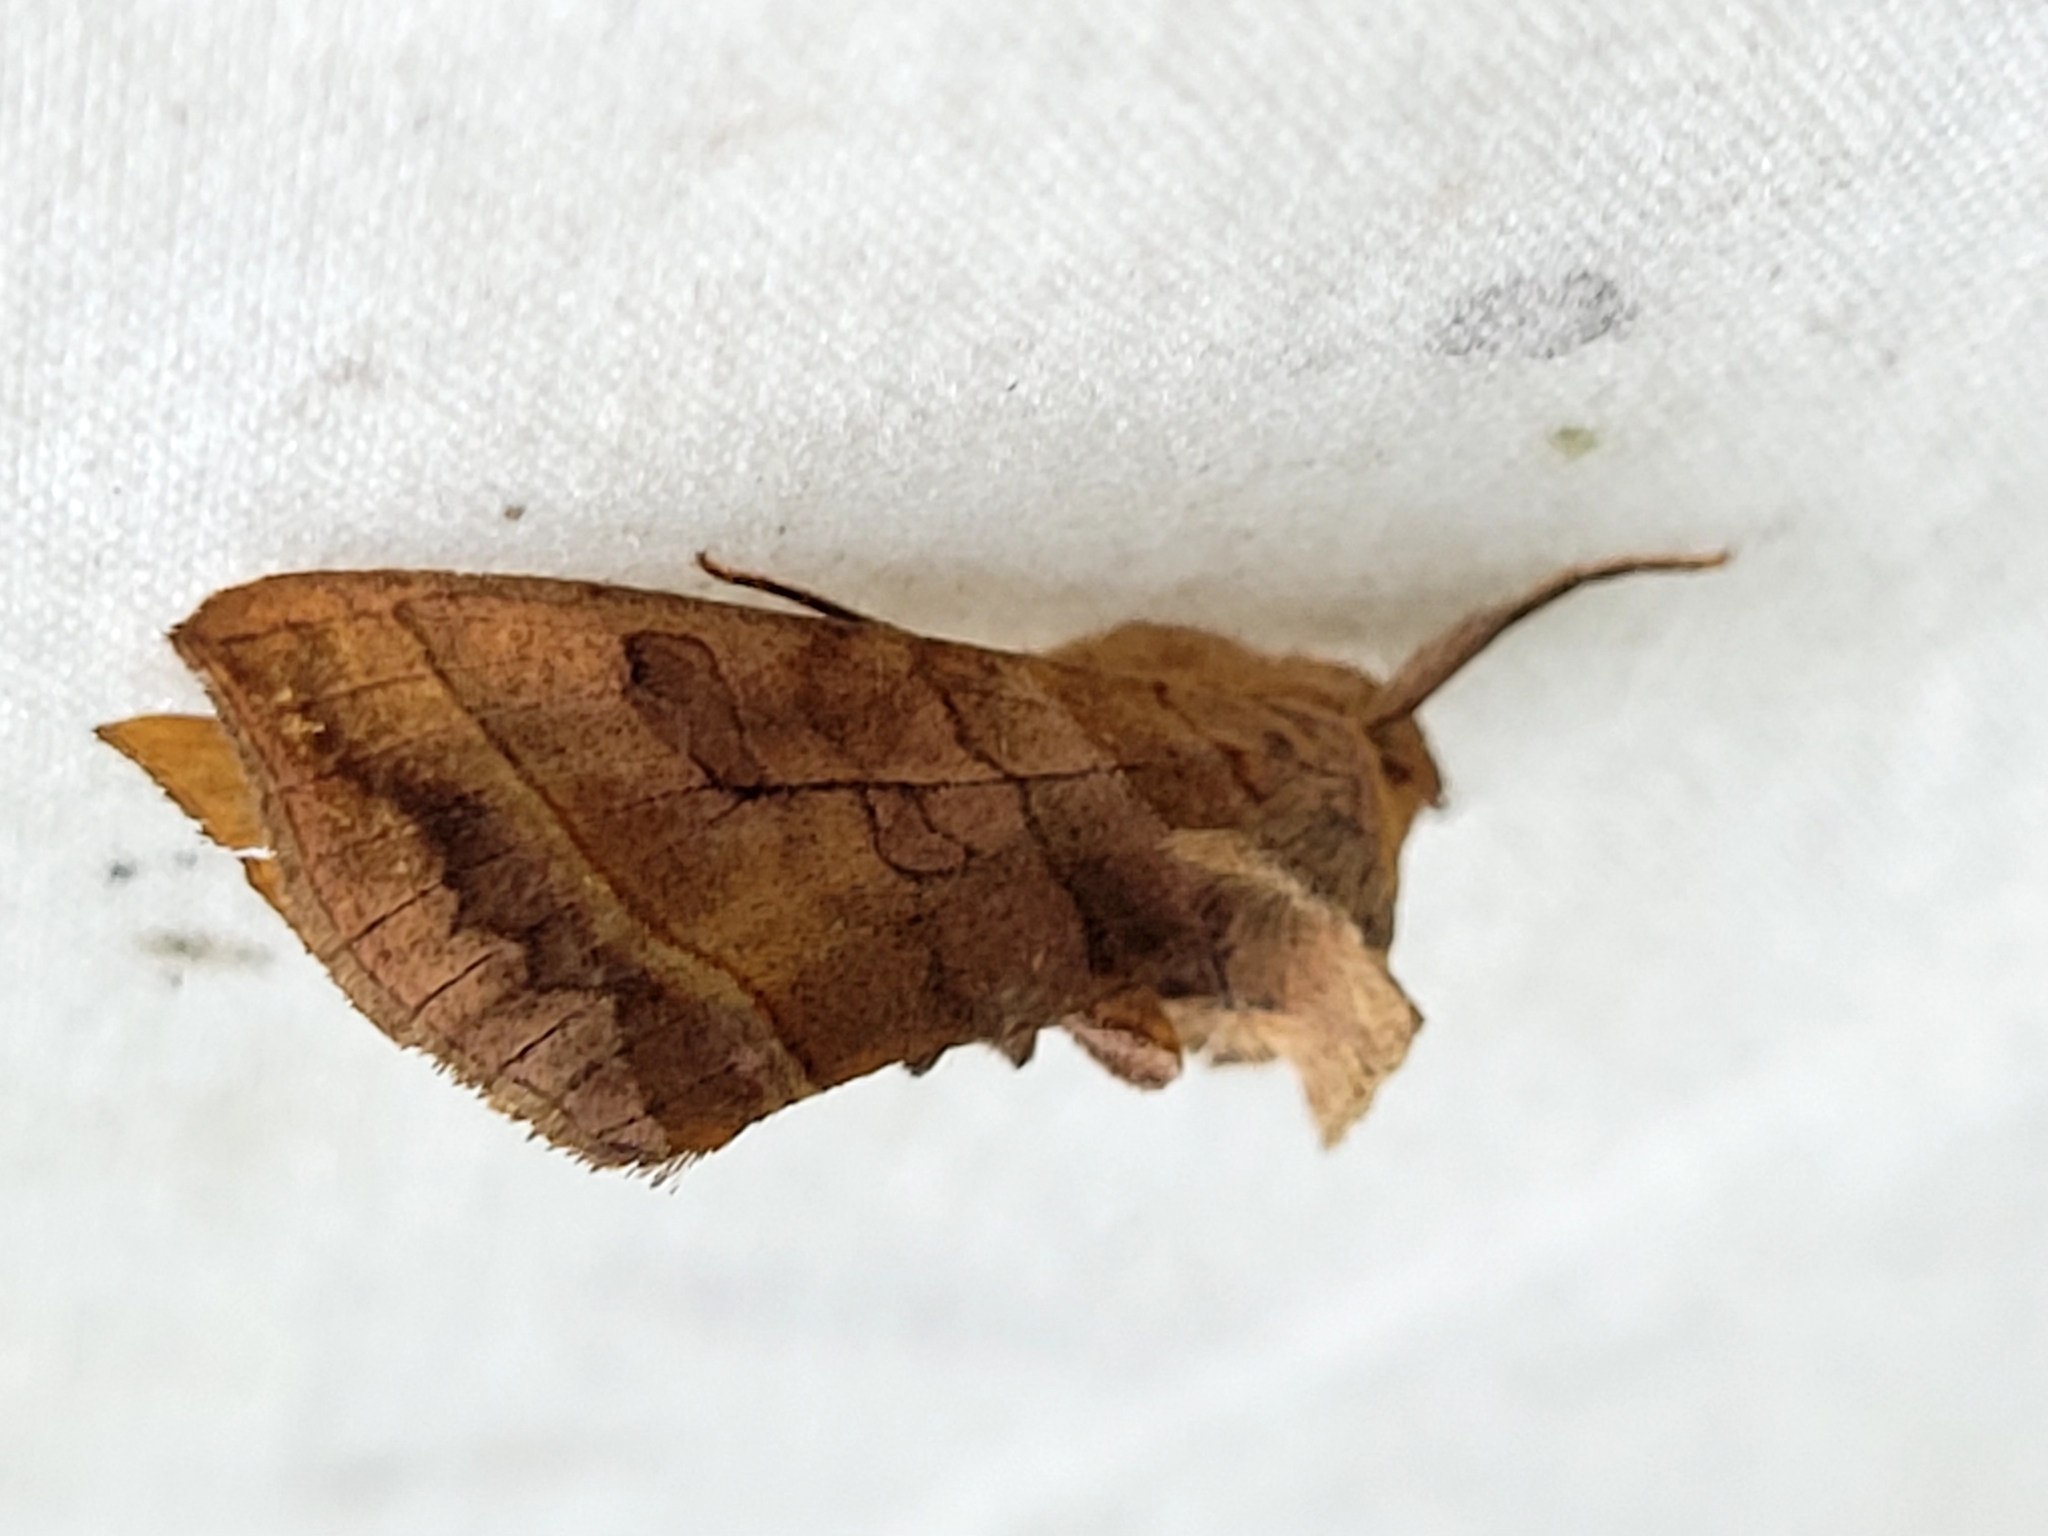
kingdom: Animalia
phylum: Arthropoda
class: Insecta
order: Lepidoptera
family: Noctuidae
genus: Diachrysia
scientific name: Diachrysia aereoides
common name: Dark-spotted looper moth
